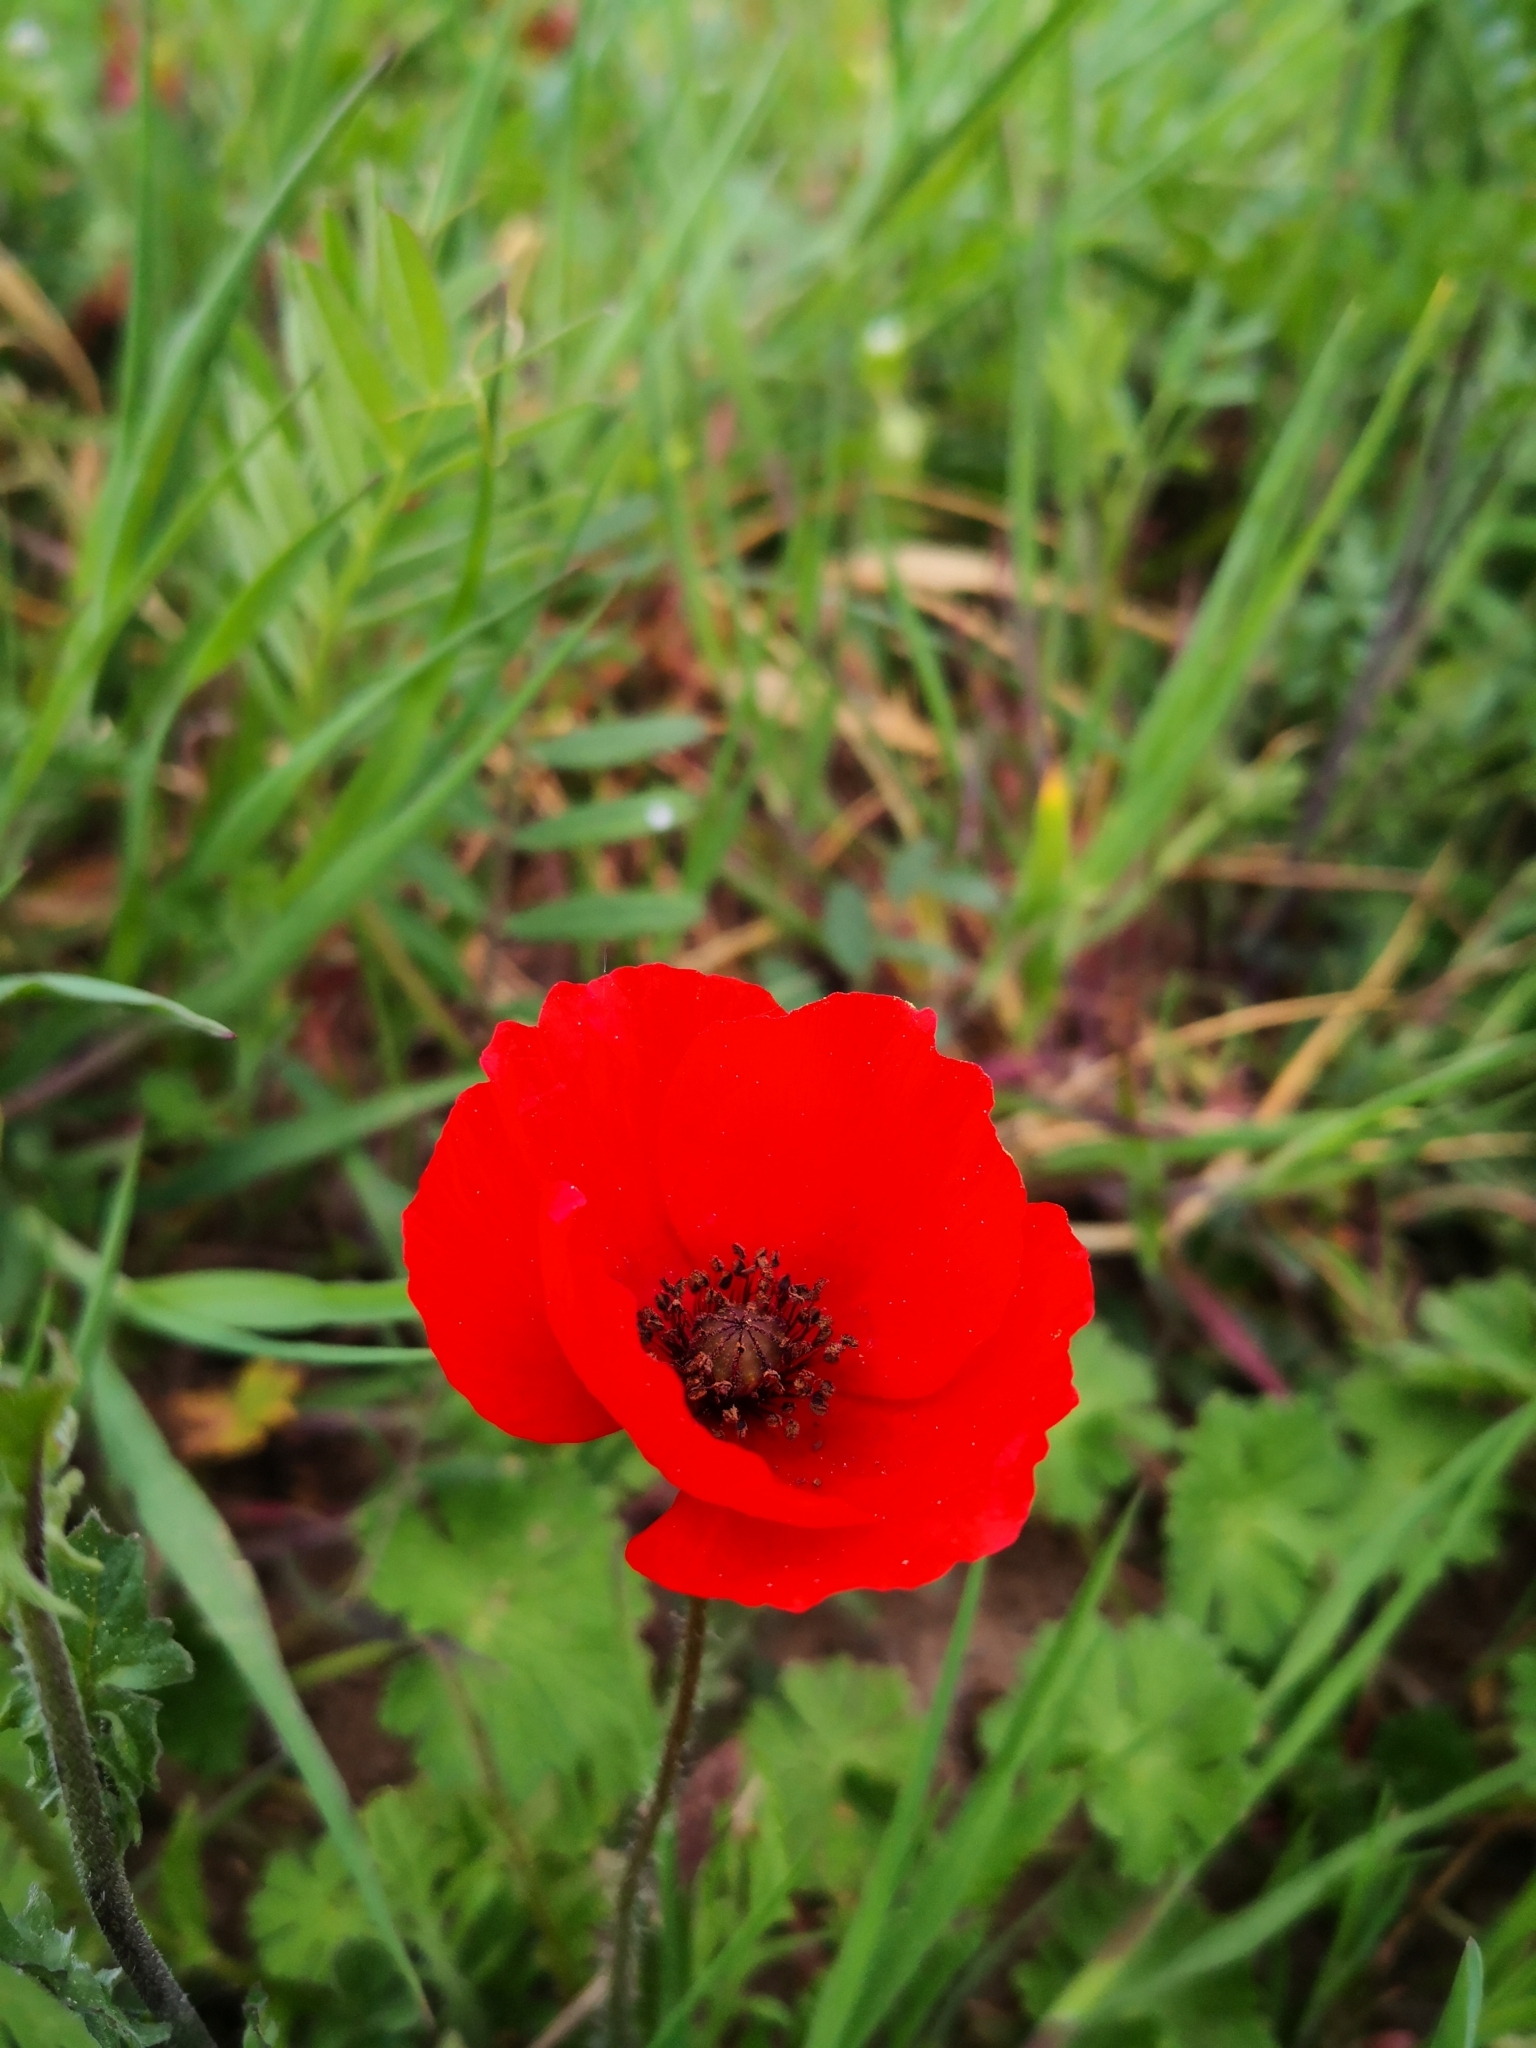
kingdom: Plantae
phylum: Tracheophyta
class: Magnoliopsida
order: Ranunculales
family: Papaveraceae
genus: Papaver
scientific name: Papaver rhoeas
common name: Corn poppy
